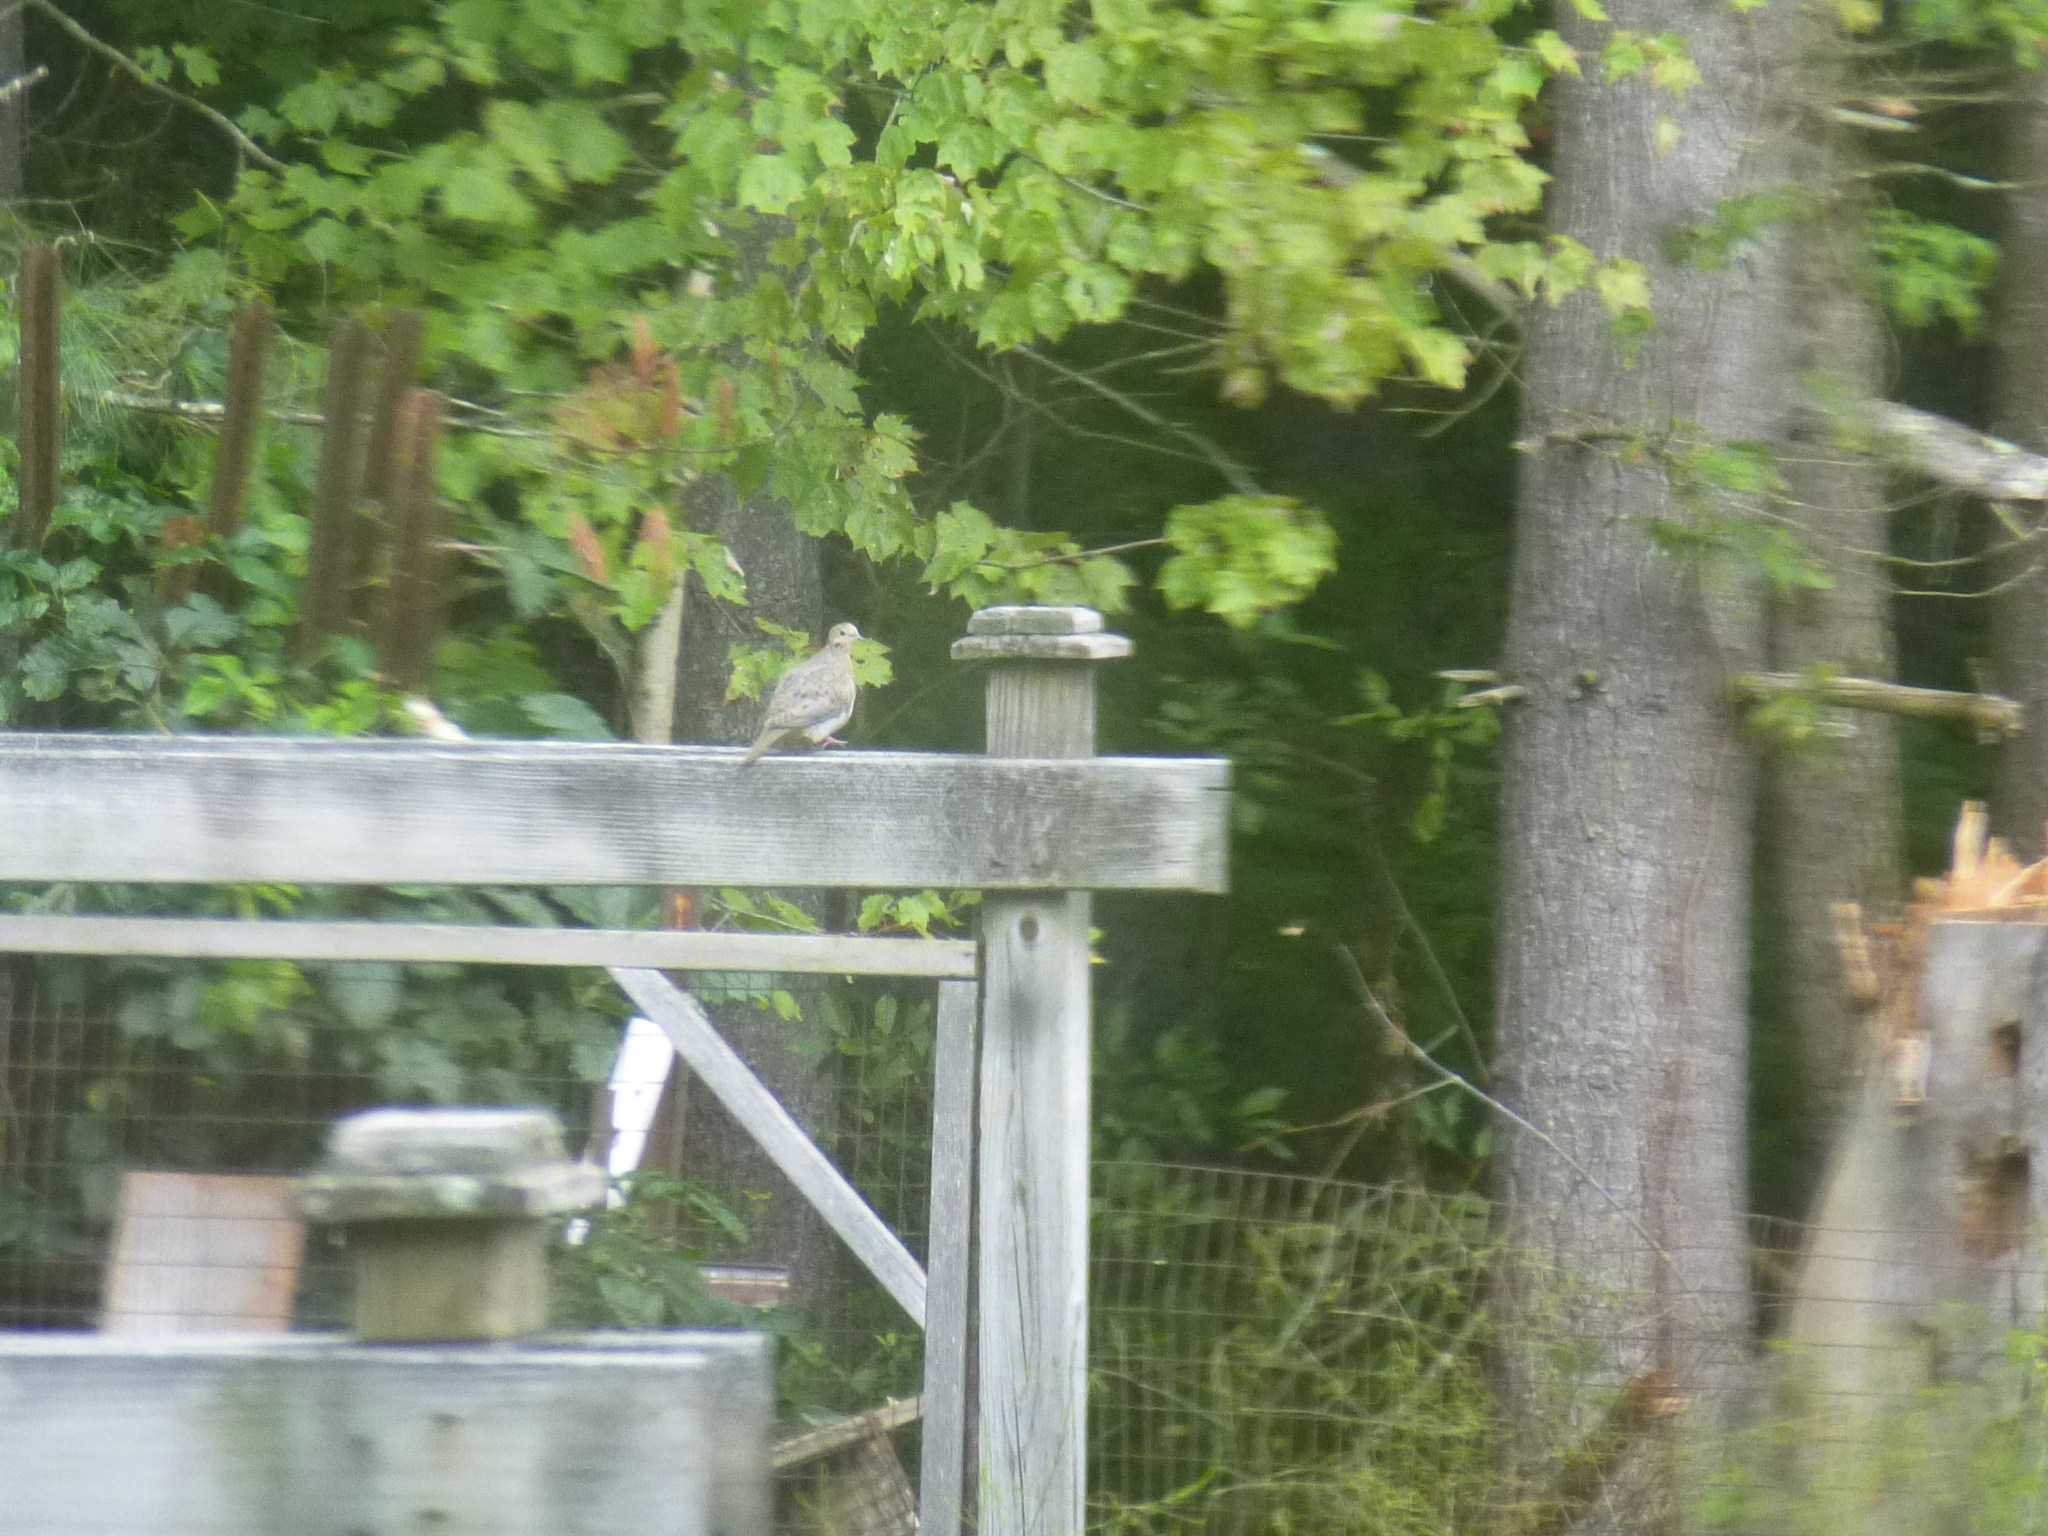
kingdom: Animalia
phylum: Chordata
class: Aves
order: Columbiformes
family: Columbidae
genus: Zenaida
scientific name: Zenaida macroura
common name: Mourning dove
